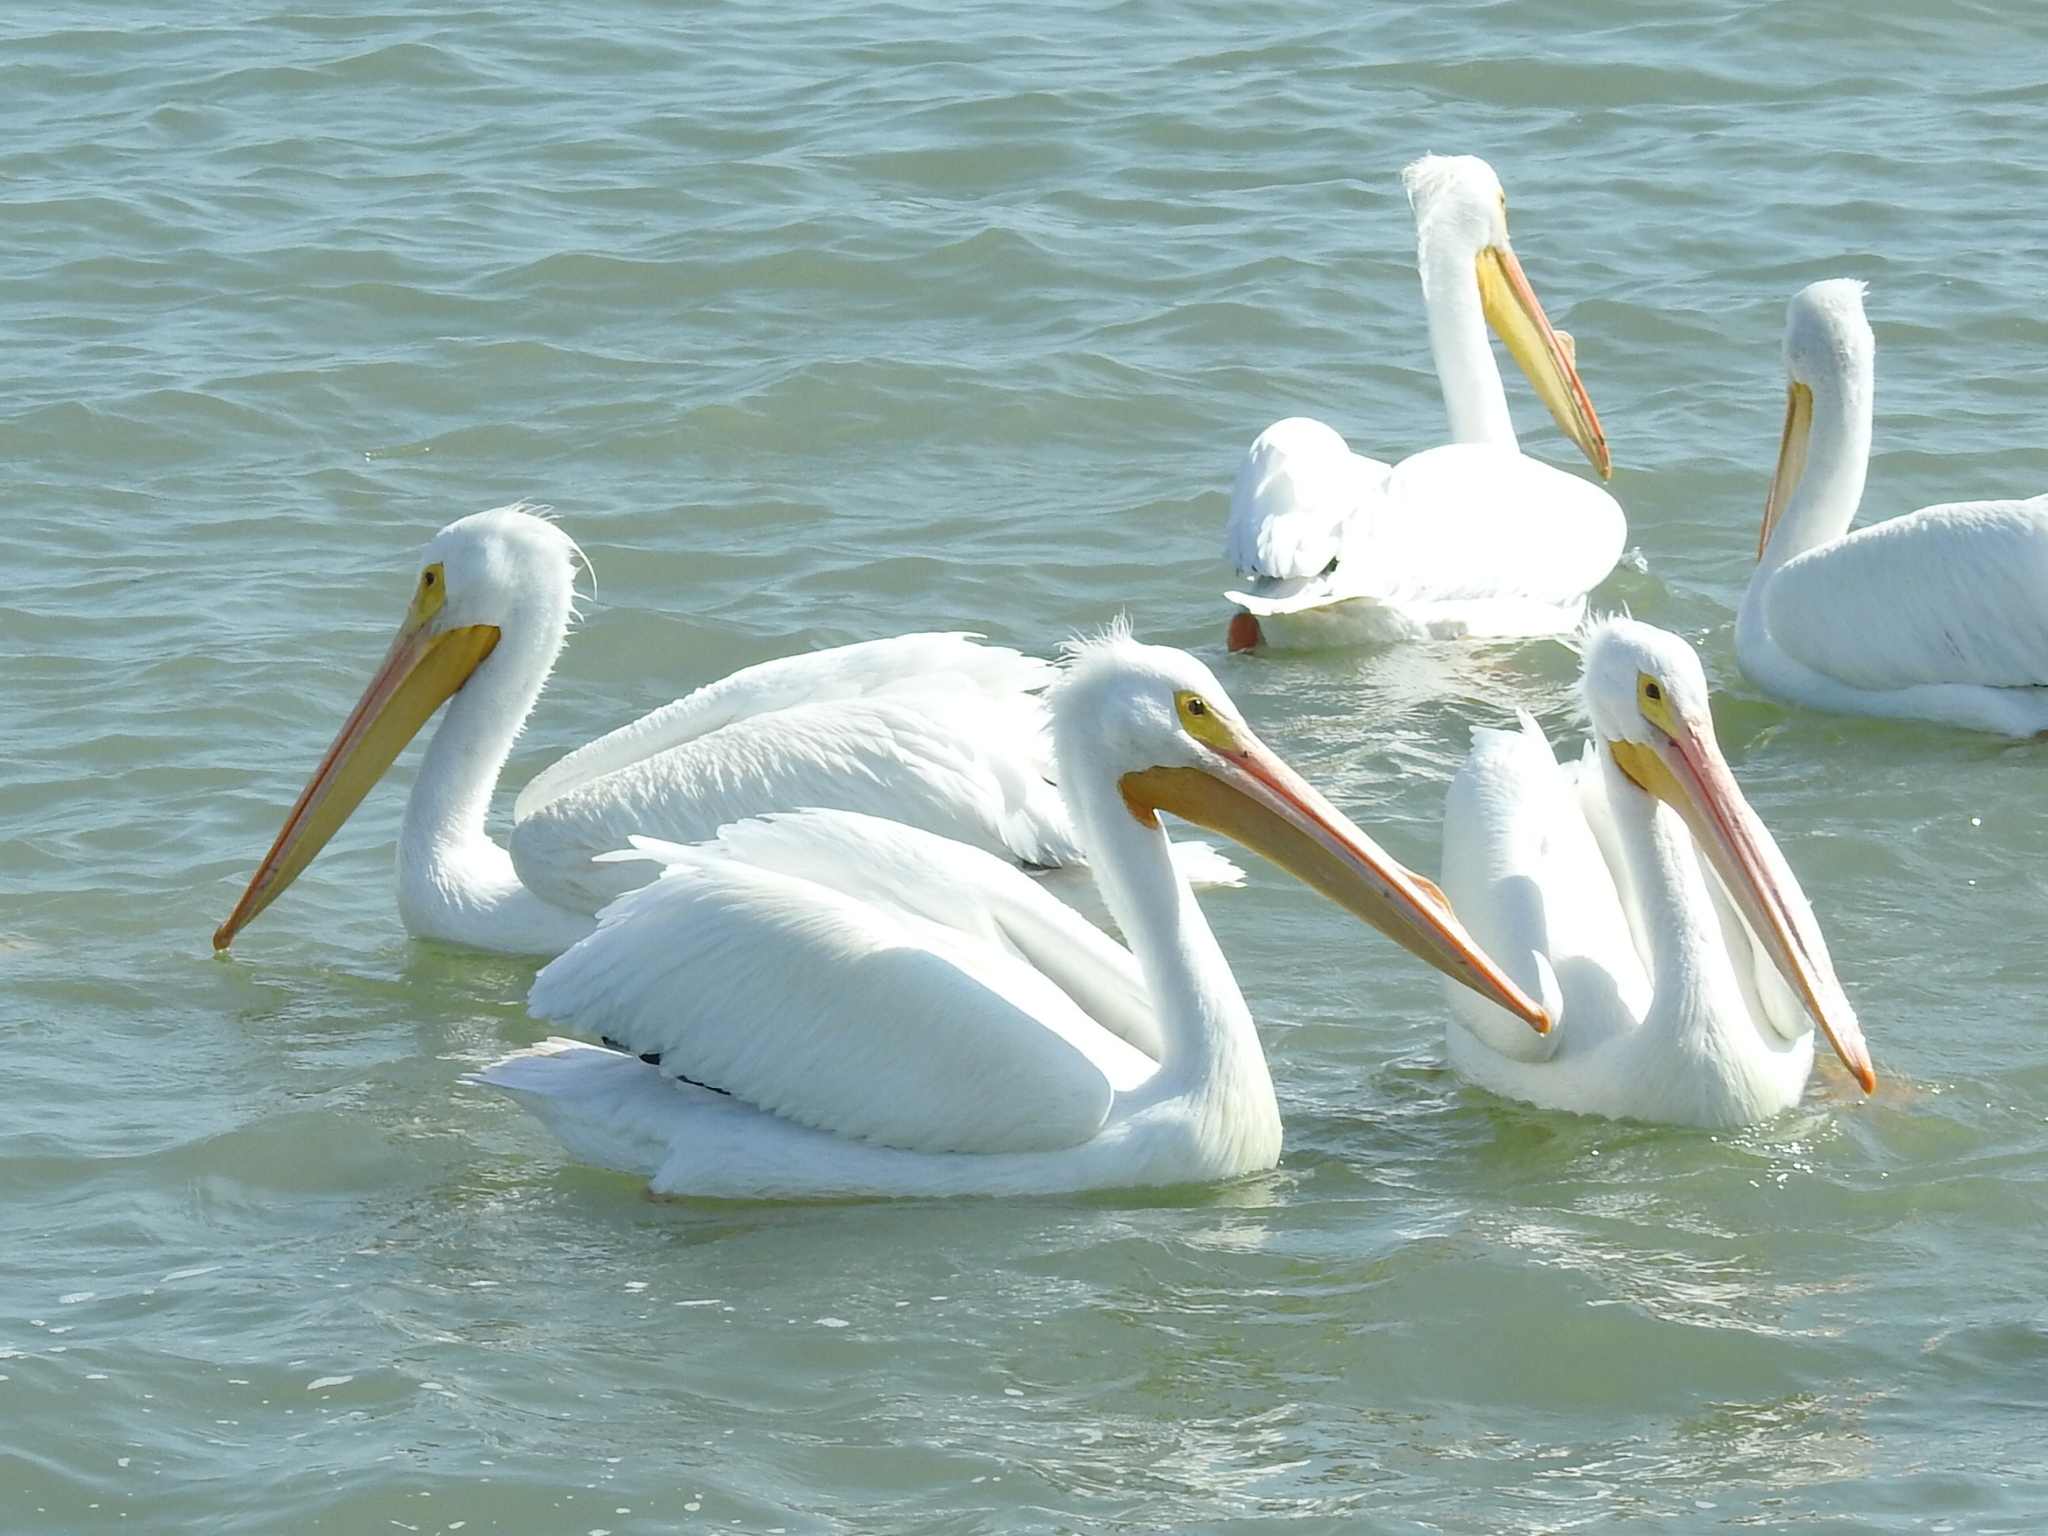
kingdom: Animalia
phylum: Chordata
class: Aves
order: Pelecaniformes
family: Pelecanidae
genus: Pelecanus
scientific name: Pelecanus erythrorhynchos
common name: American white pelican
